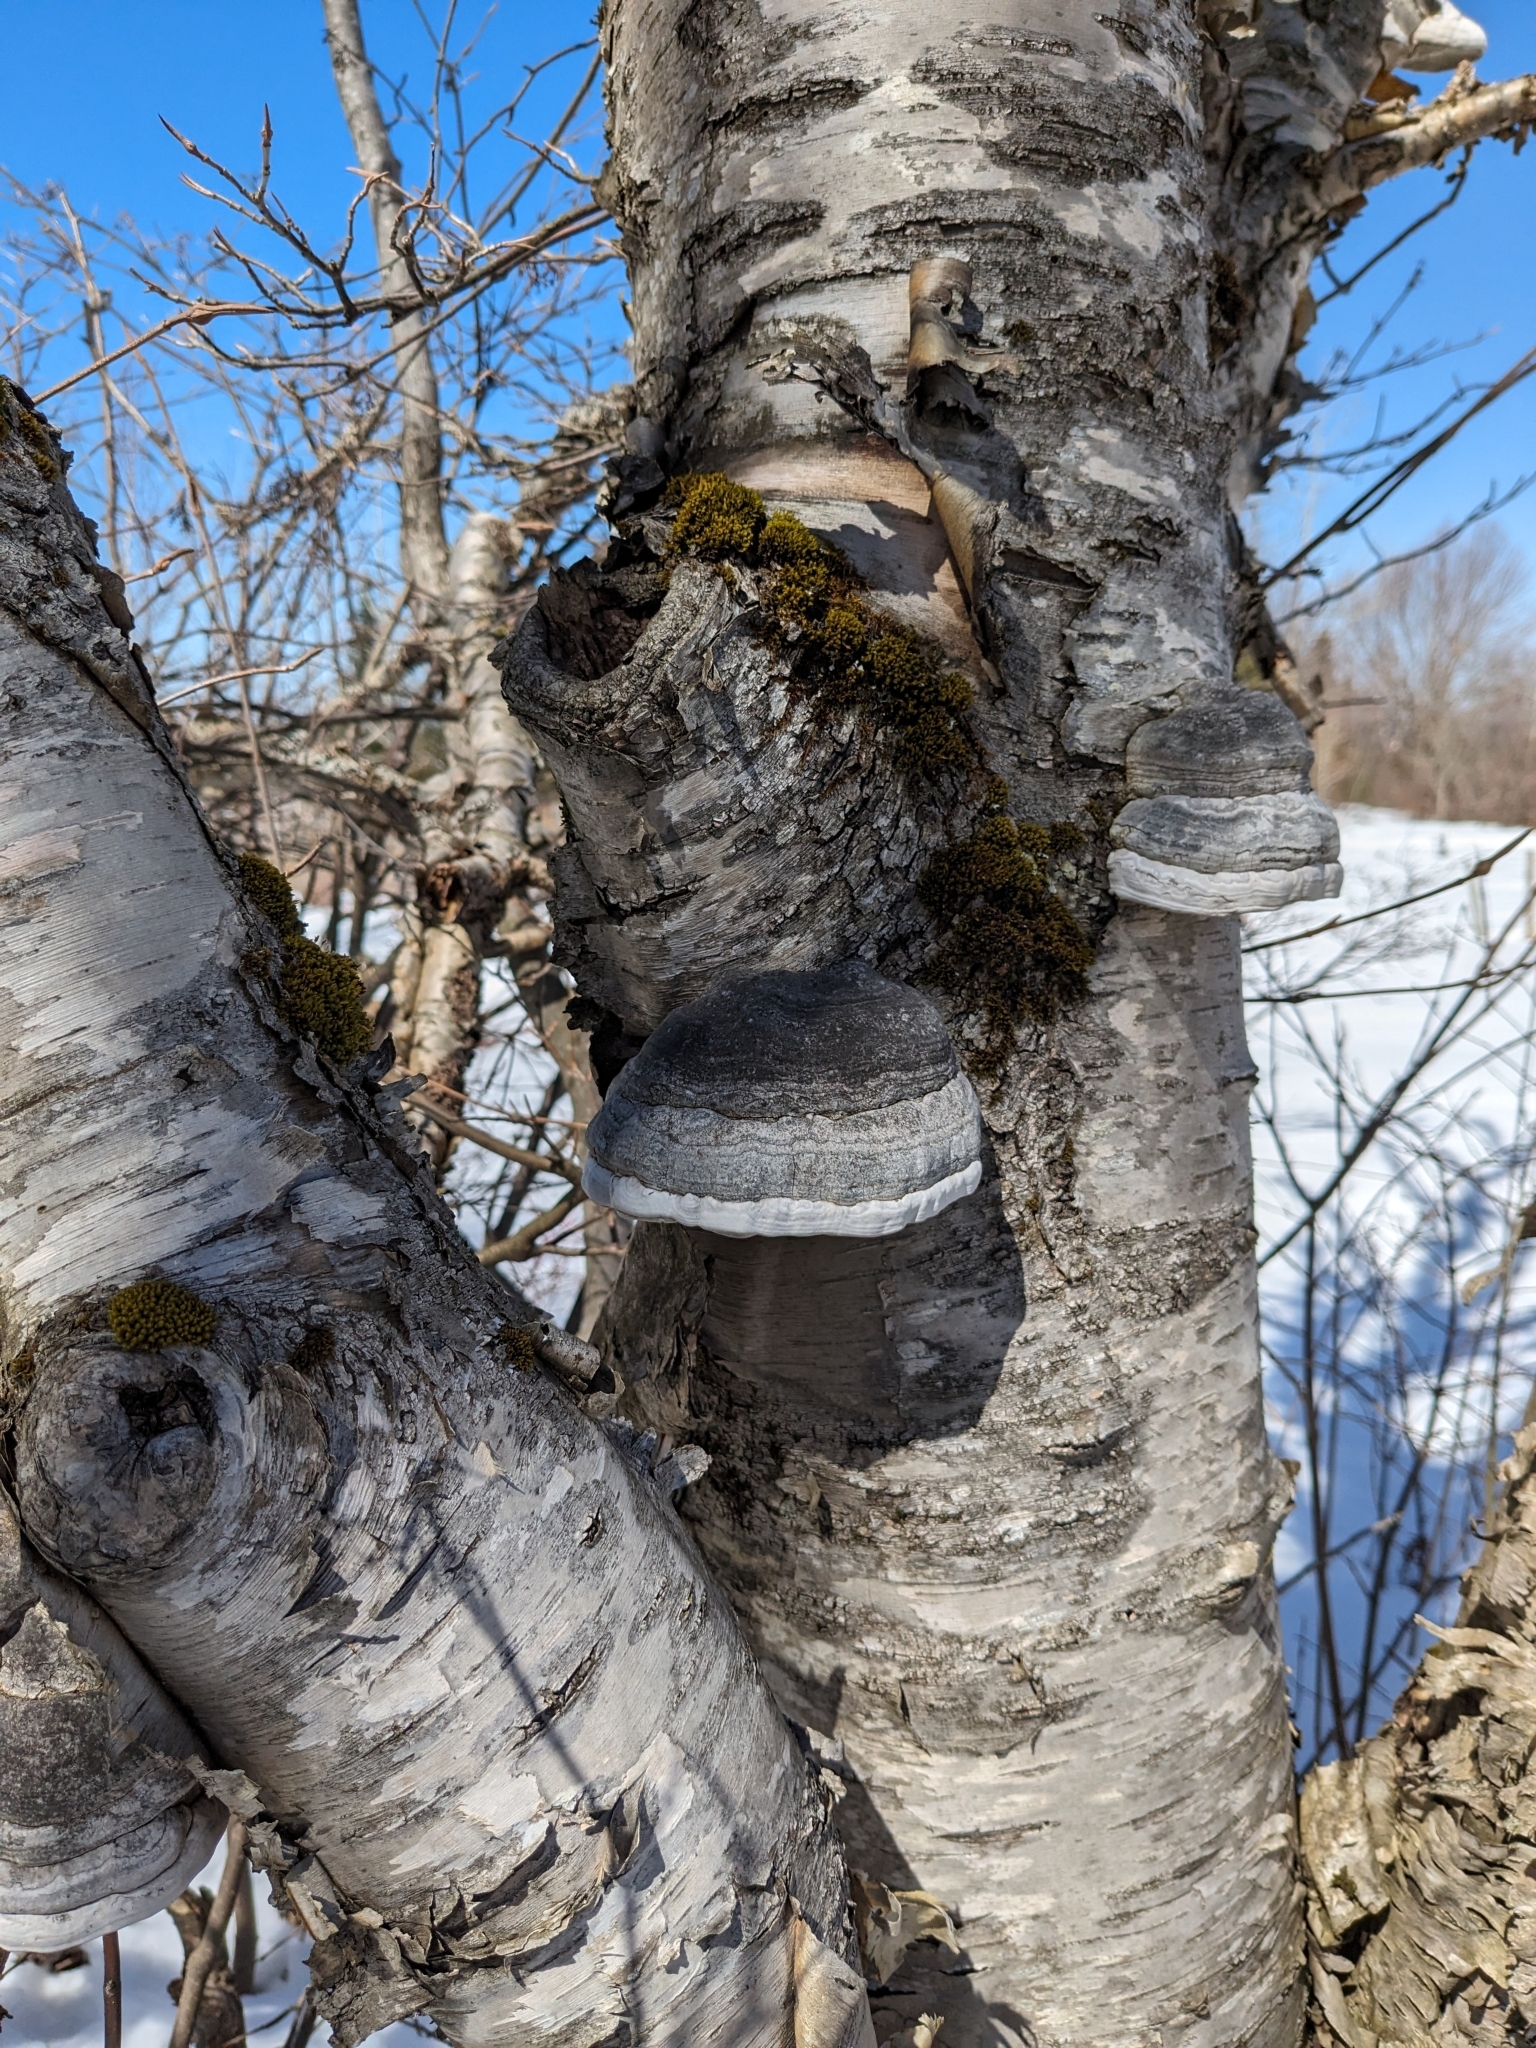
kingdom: Fungi
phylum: Basidiomycota
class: Agaricomycetes
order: Polyporales
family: Polyporaceae
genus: Fomes
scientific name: Fomes fomentarius
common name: Hoof fungus
